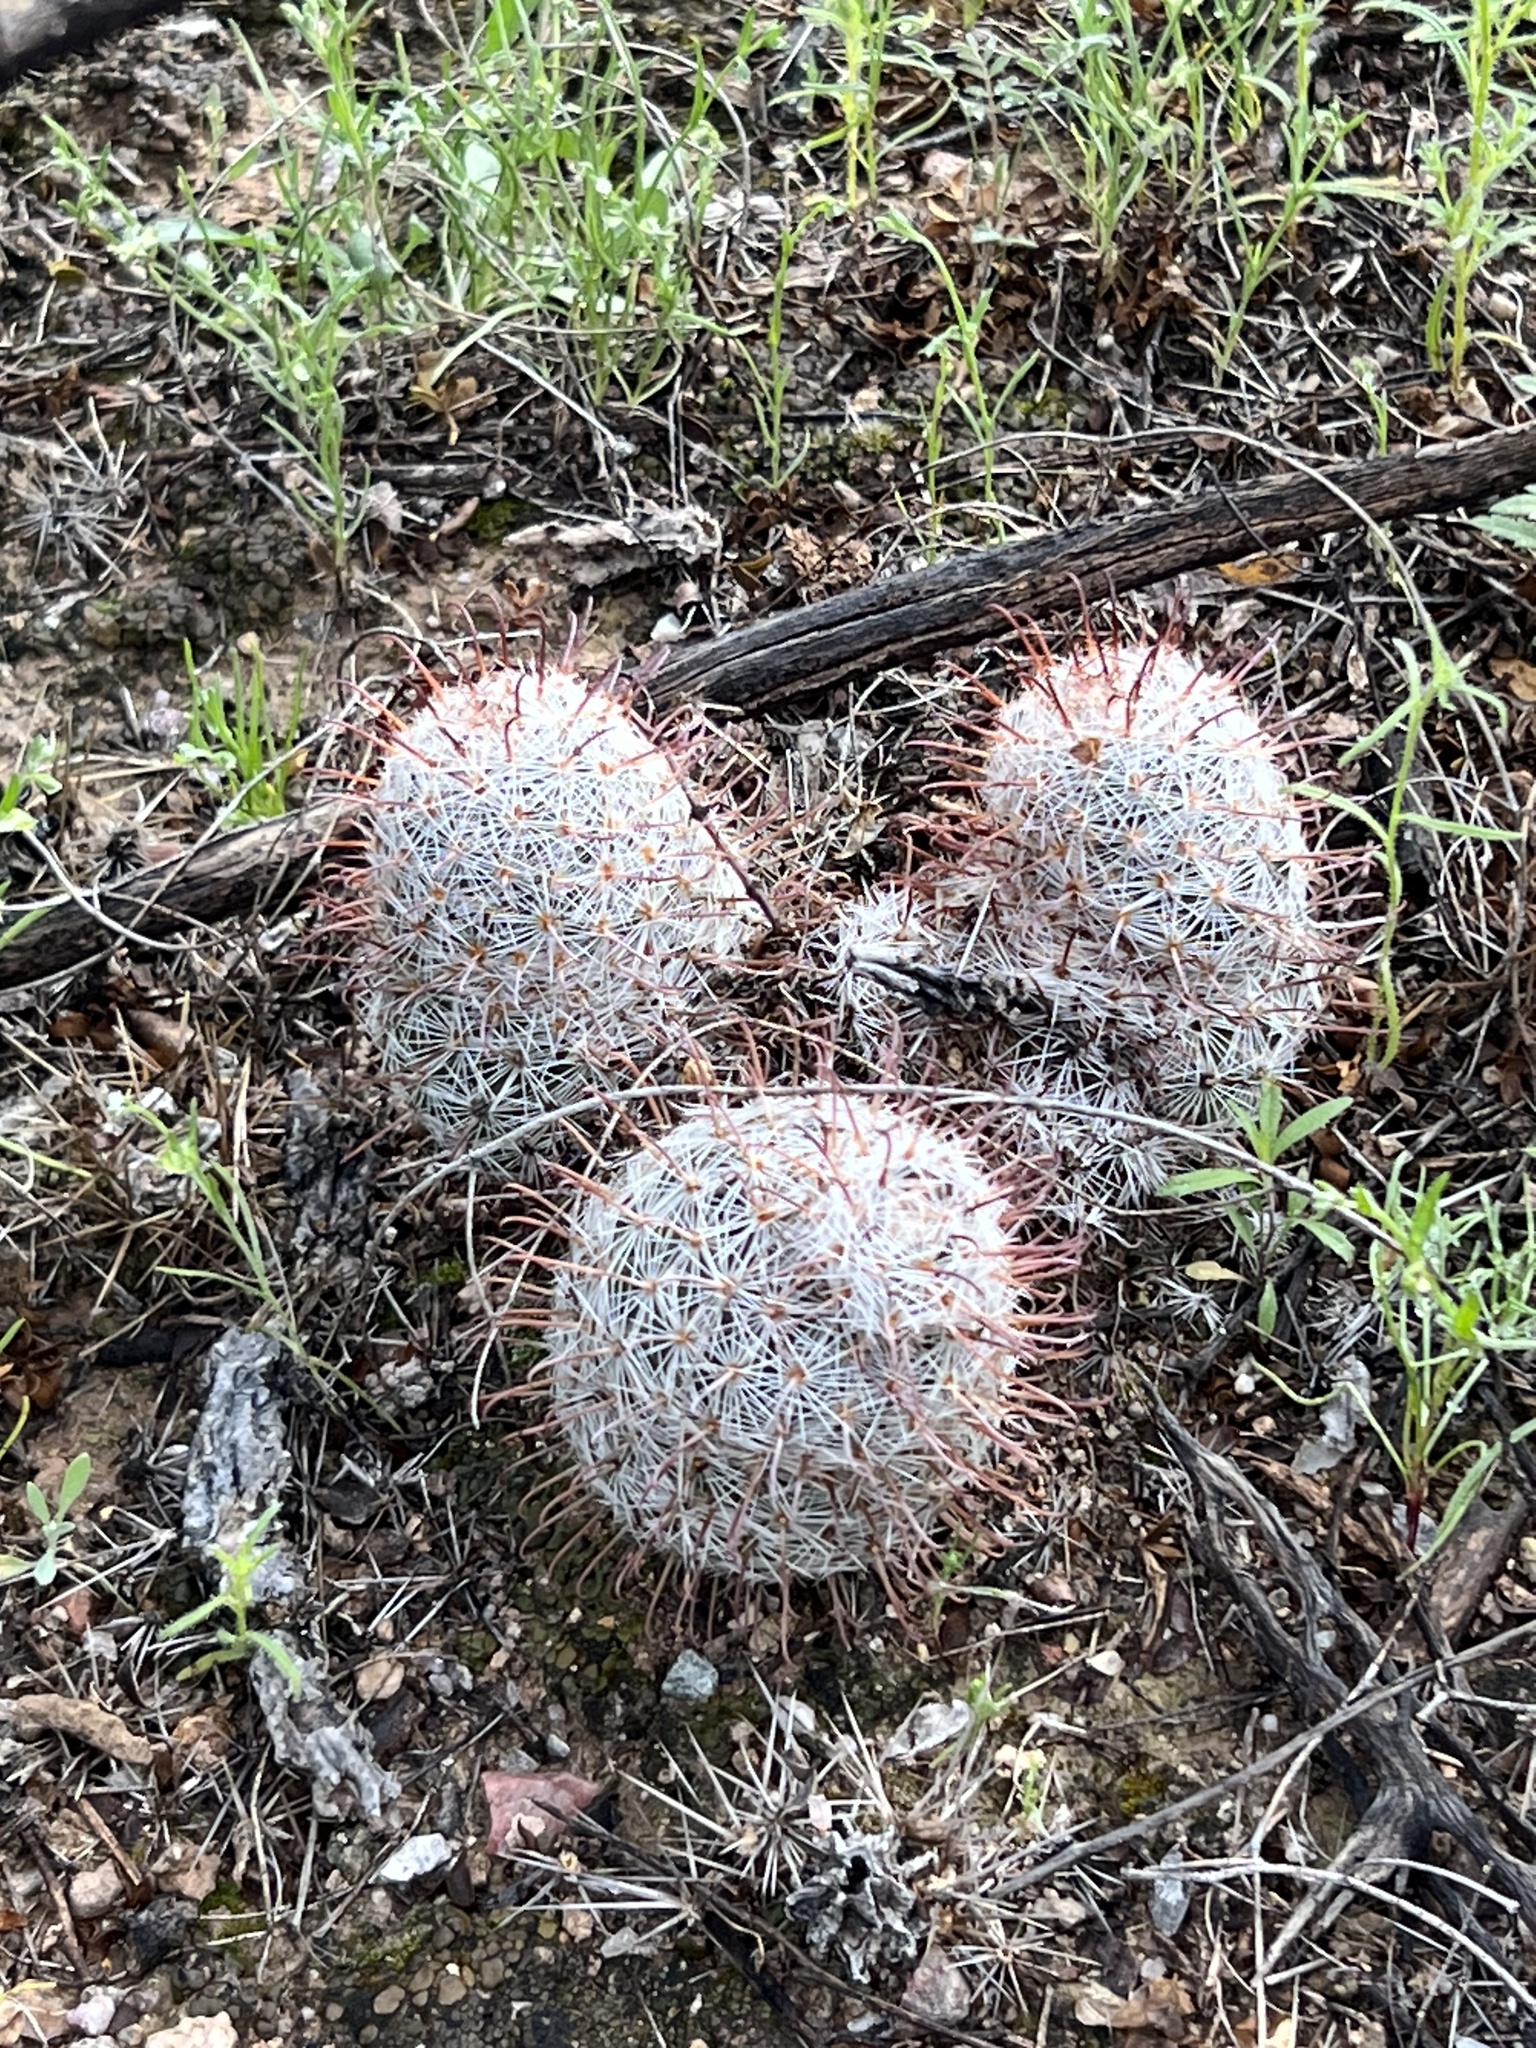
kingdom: Plantae
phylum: Tracheophyta
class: Magnoliopsida
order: Caryophyllales
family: Cactaceae
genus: Cochemiea
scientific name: Cochemiea grahamii
